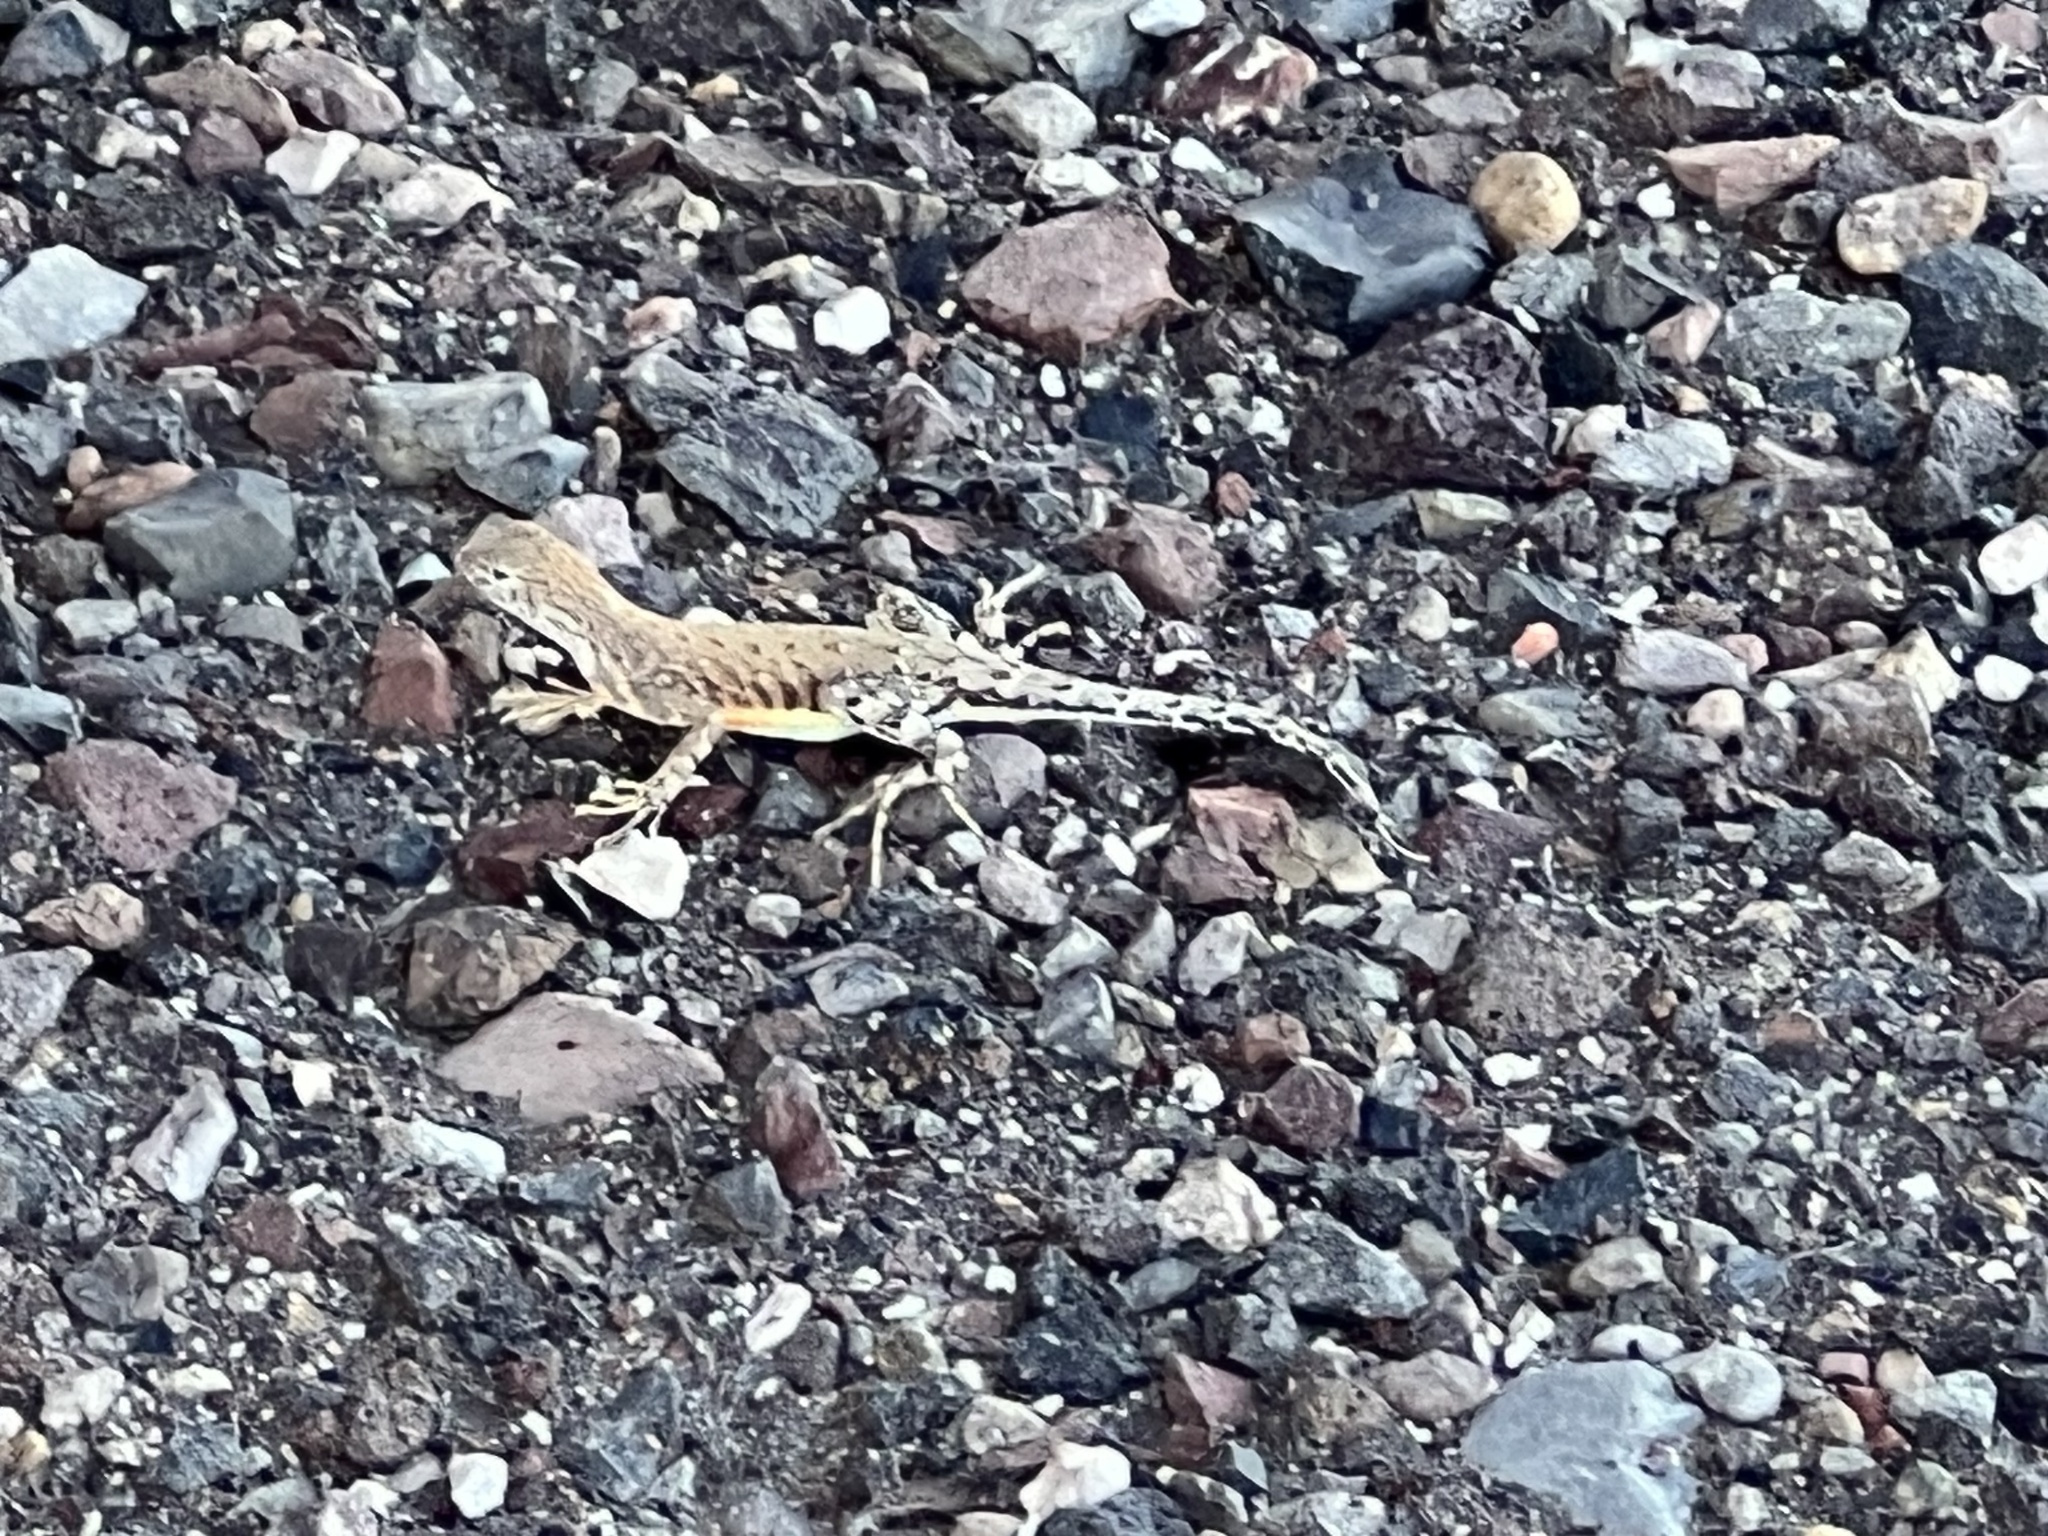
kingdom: Animalia
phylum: Chordata
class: Squamata
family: Phrynosomatidae
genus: Cophosaurus
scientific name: Cophosaurus texanus
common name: Greater earless lizard
